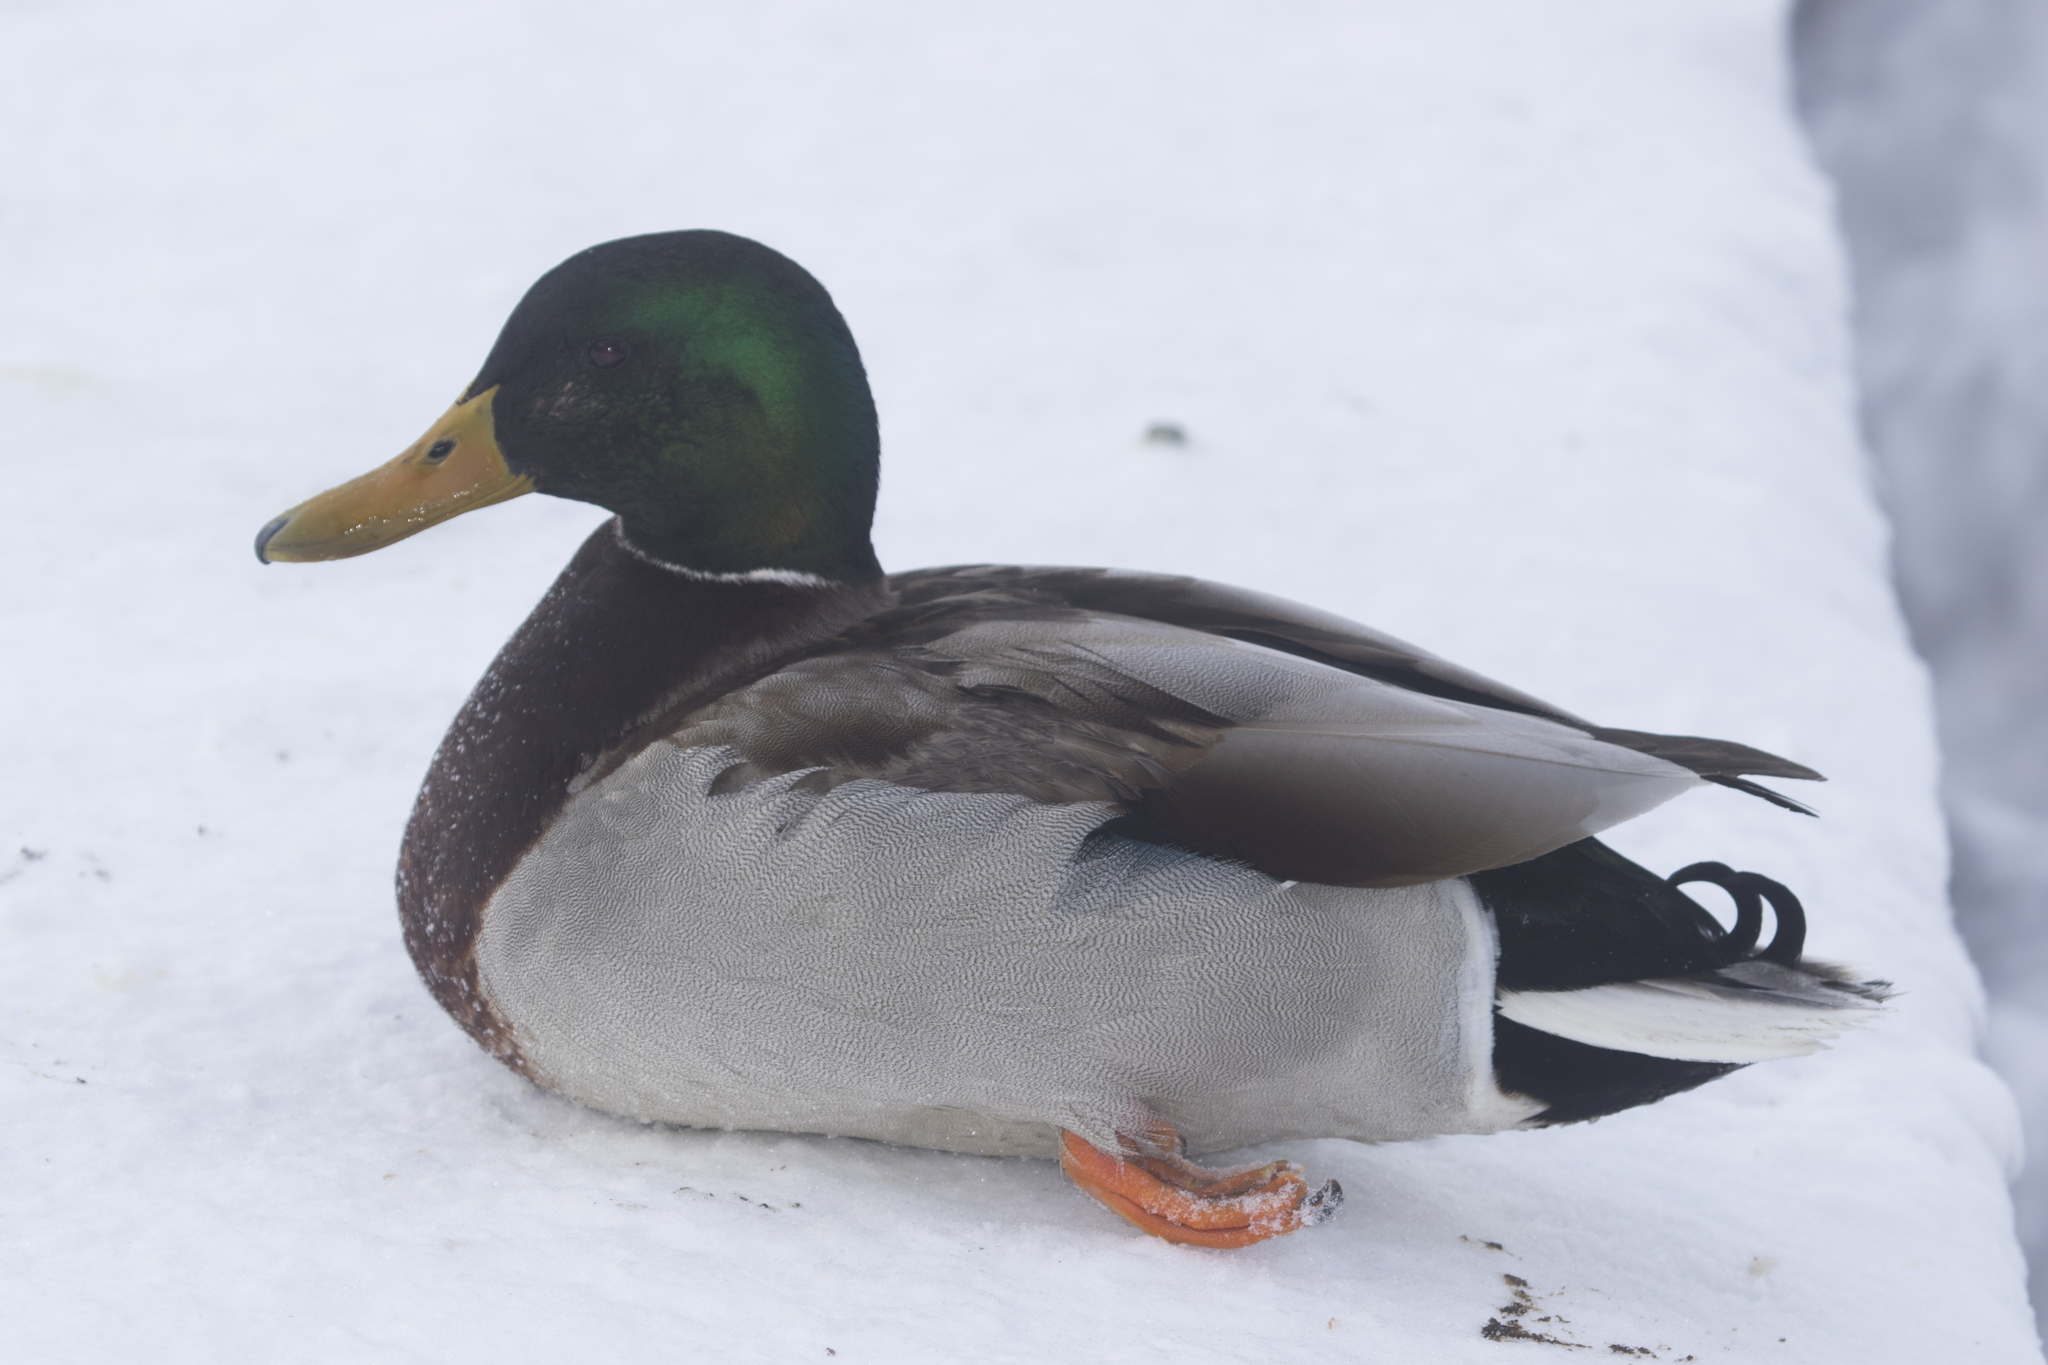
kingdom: Animalia
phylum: Chordata
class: Aves
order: Anseriformes
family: Anatidae
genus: Anas
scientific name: Anas platyrhynchos
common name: Mallard
